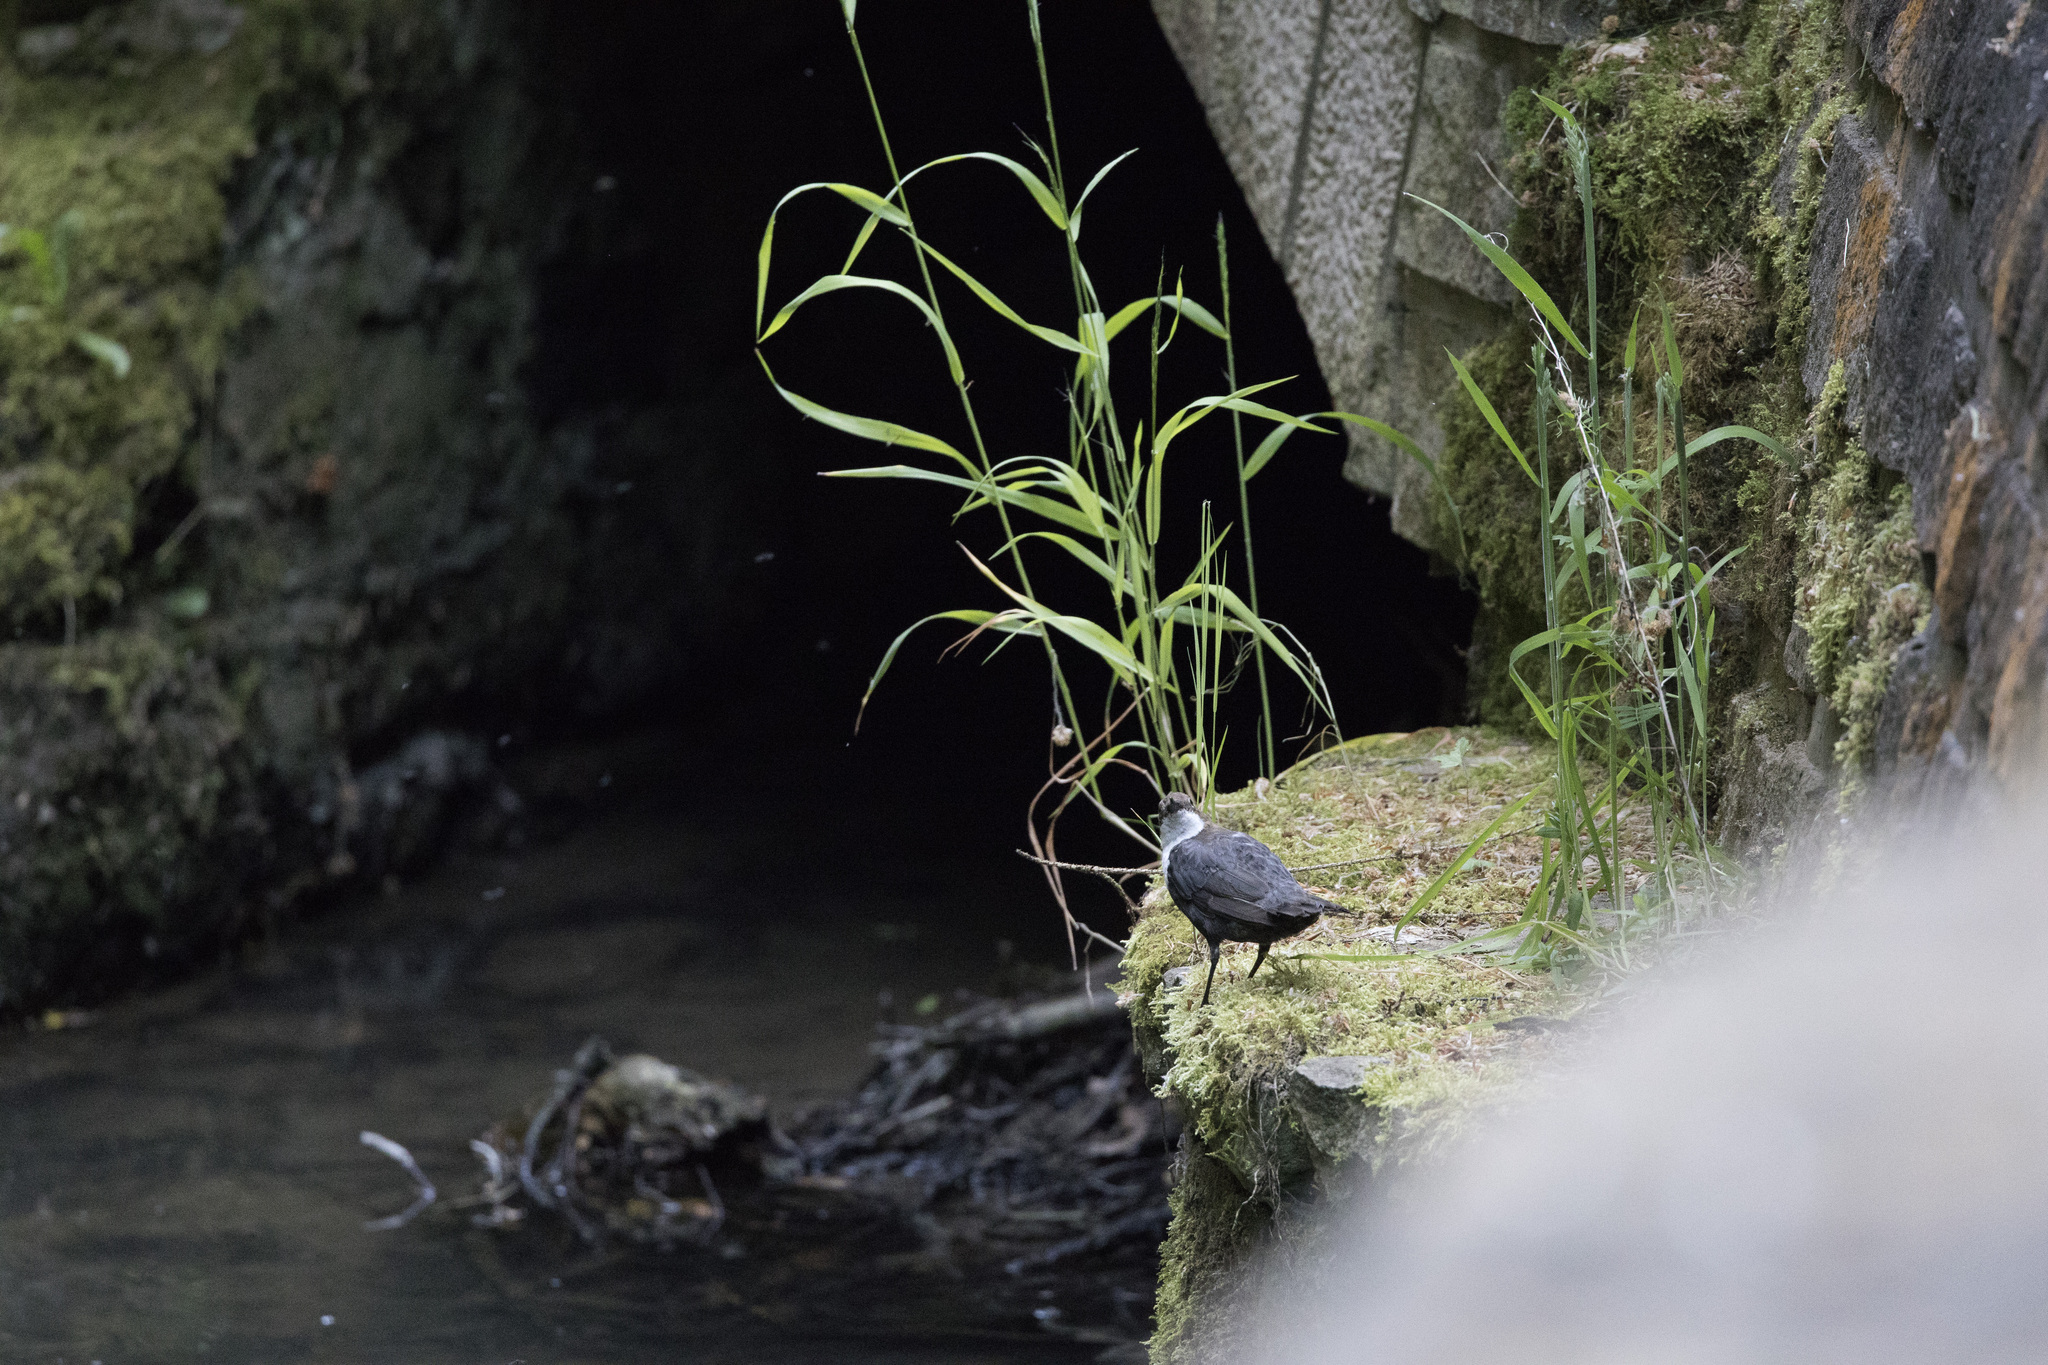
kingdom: Animalia
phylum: Chordata
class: Aves
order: Passeriformes
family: Cinclidae
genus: Cinclus
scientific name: Cinclus cinclus
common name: White-throated dipper
